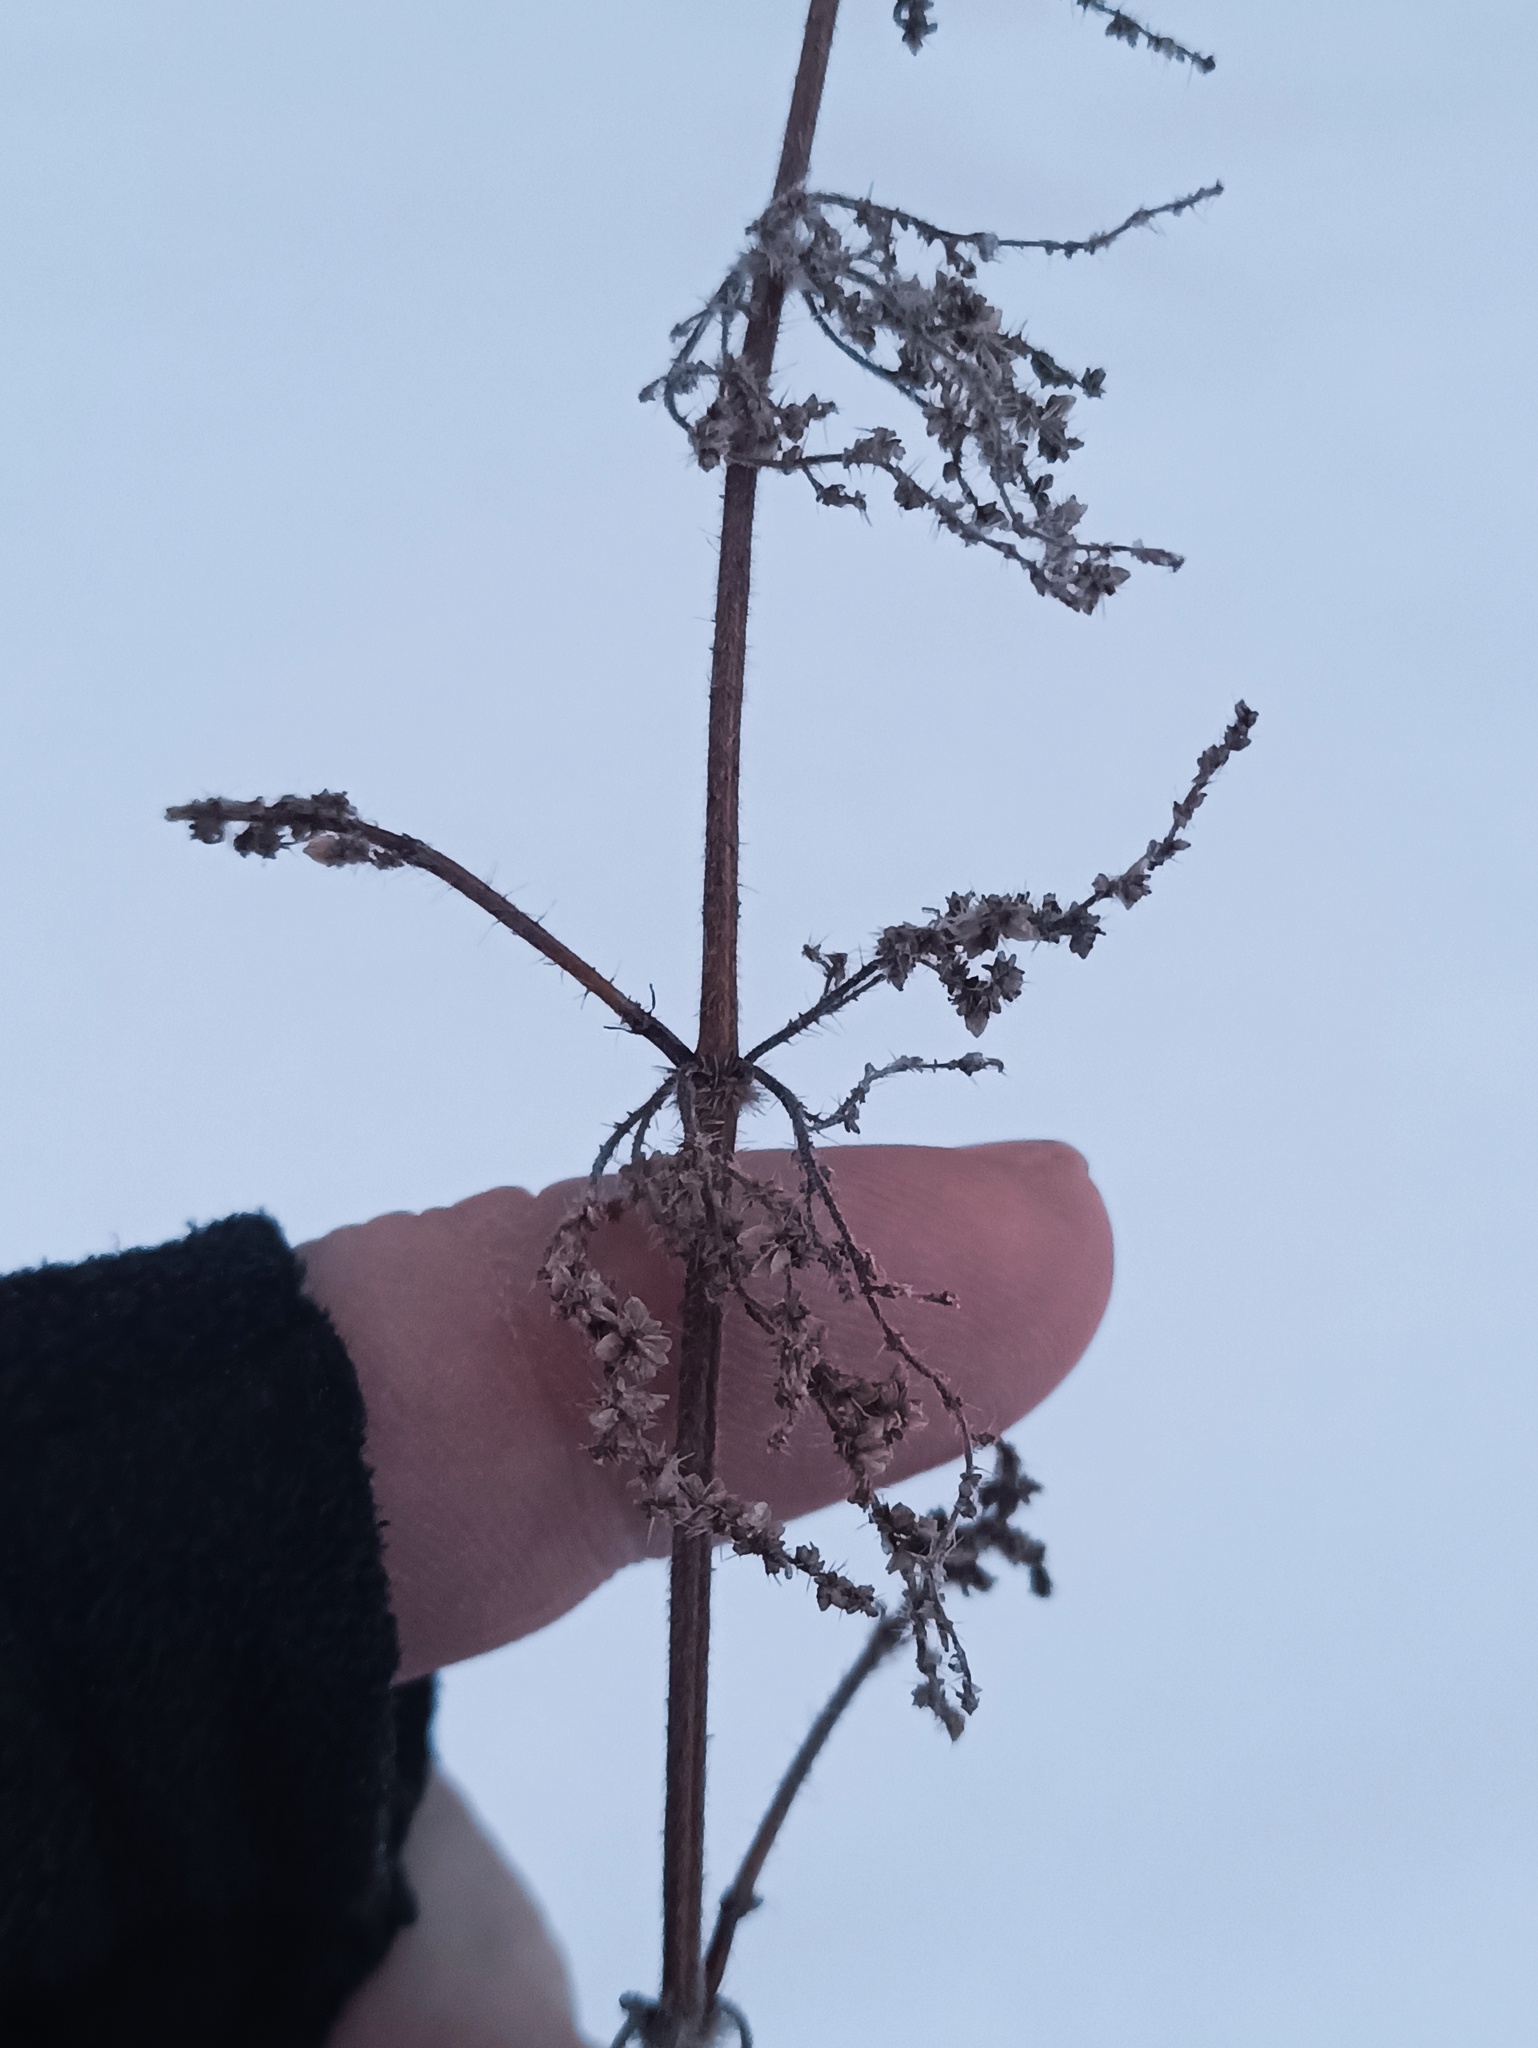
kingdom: Plantae
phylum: Tracheophyta
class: Magnoliopsida
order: Rosales
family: Urticaceae
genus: Urtica
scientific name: Urtica dioica
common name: Common nettle
